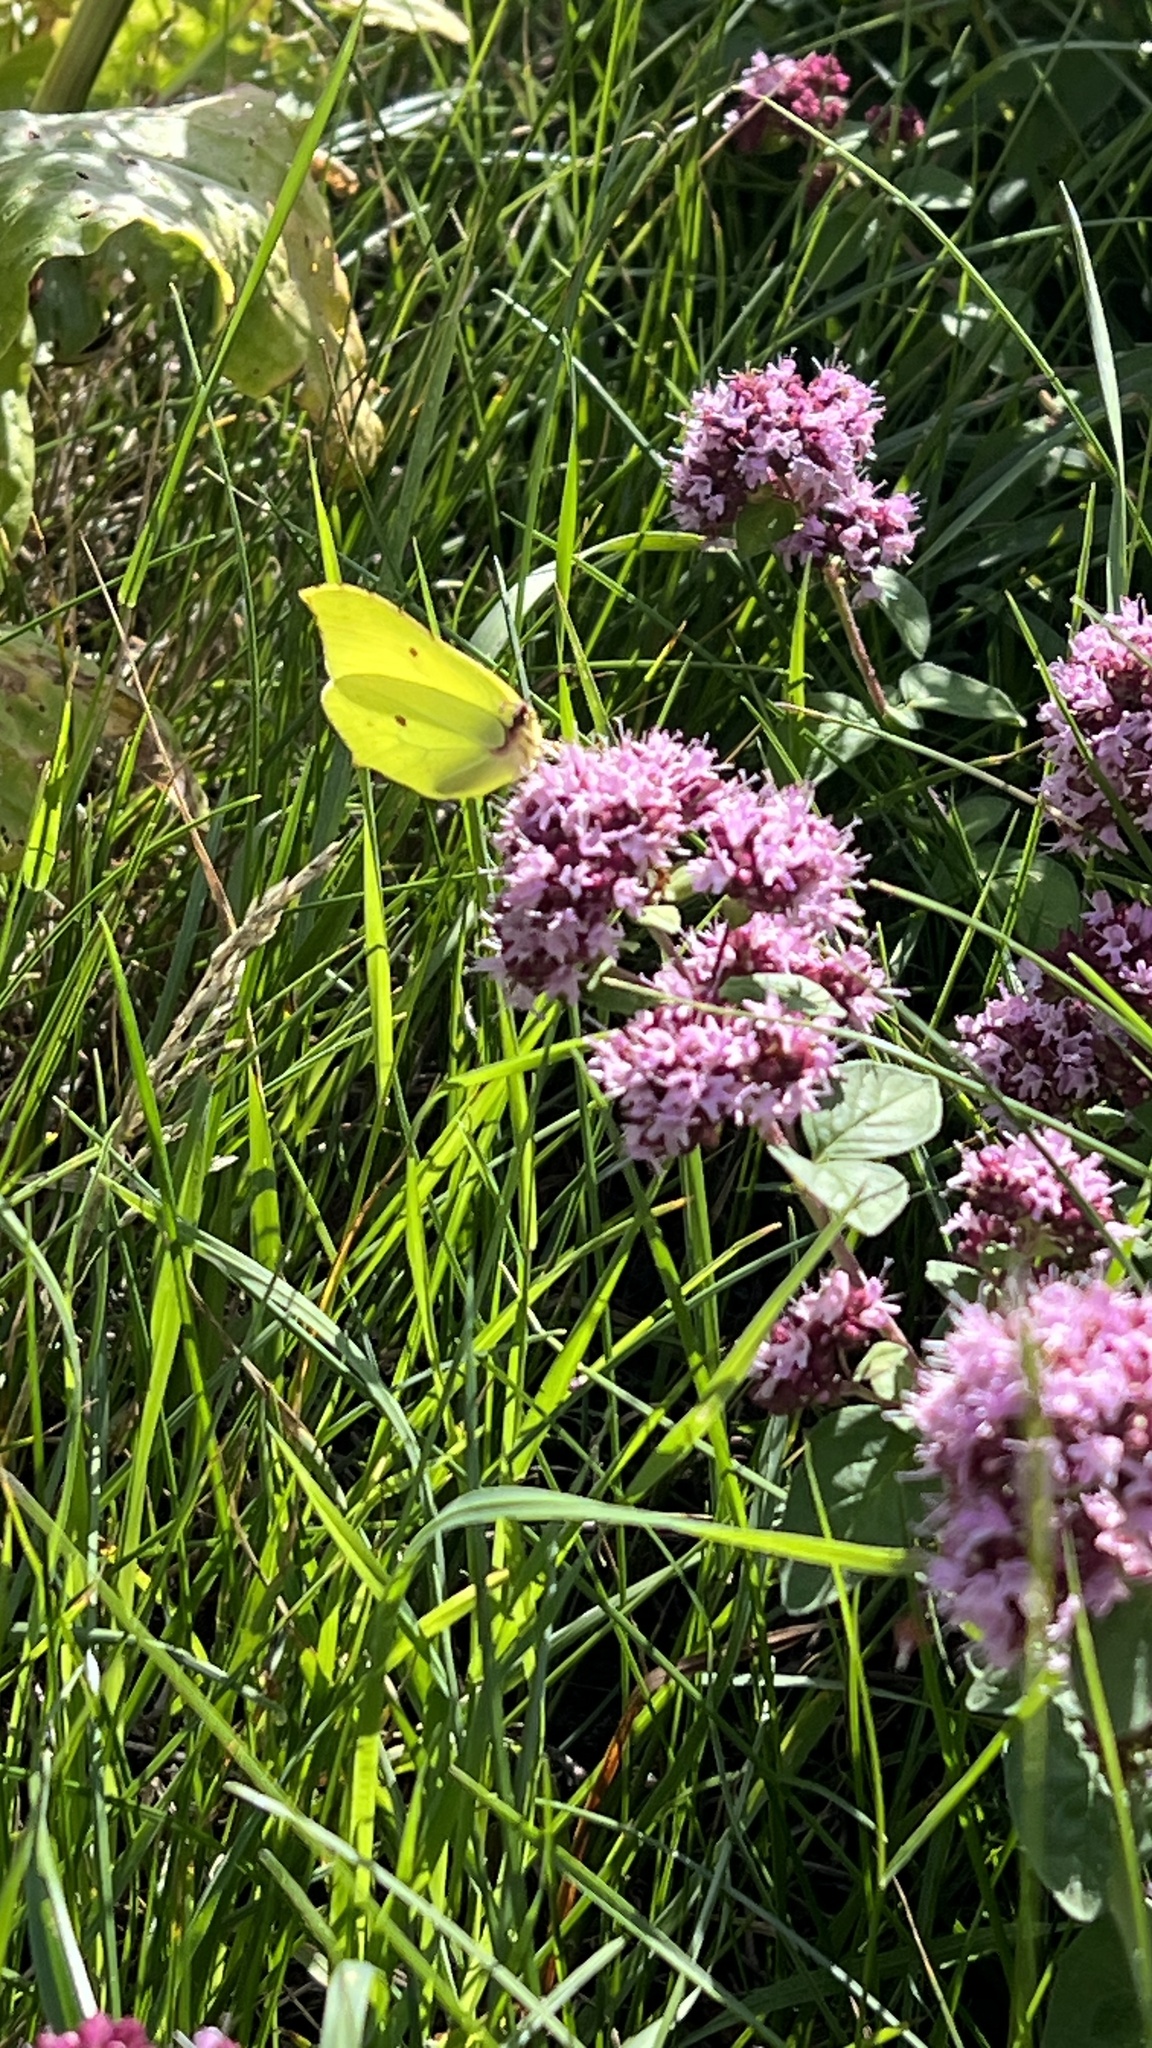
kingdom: Animalia
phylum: Arthropoda
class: Insecta
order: Lepidoptera
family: Pieridae
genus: Gonepteryx
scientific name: Gonepteryx rhamni
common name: Brimstone
